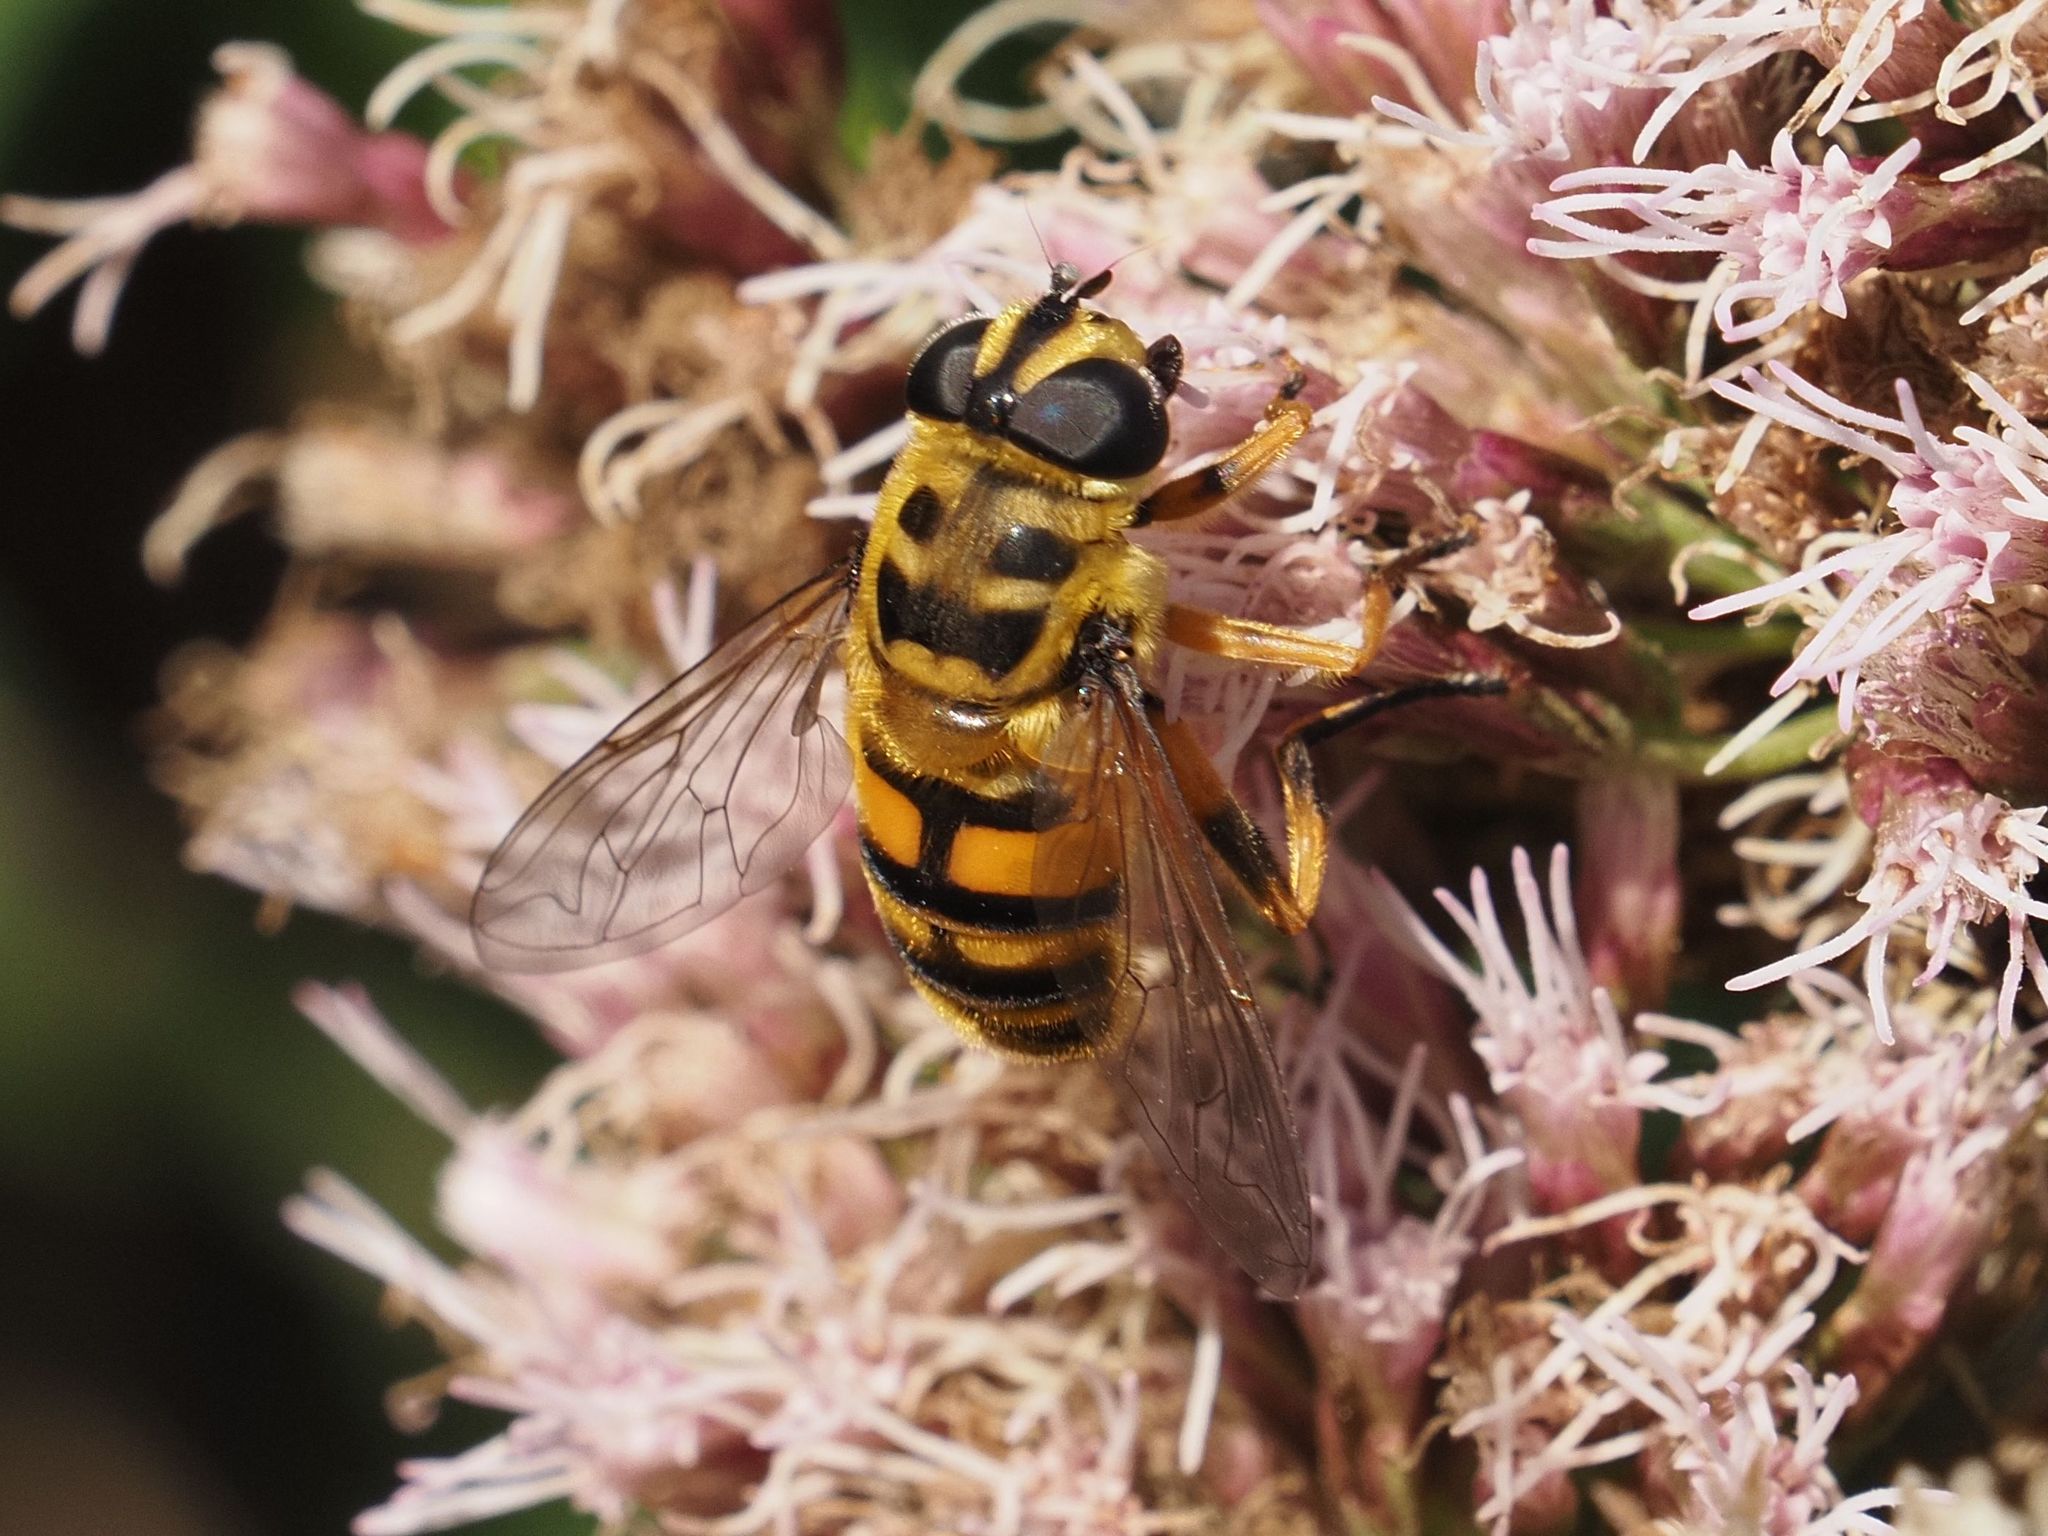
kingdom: Animalia
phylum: Arthropoda
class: Insecta
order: Diptera
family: Syrphidae
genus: Myathropa
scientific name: Myathropa florea
